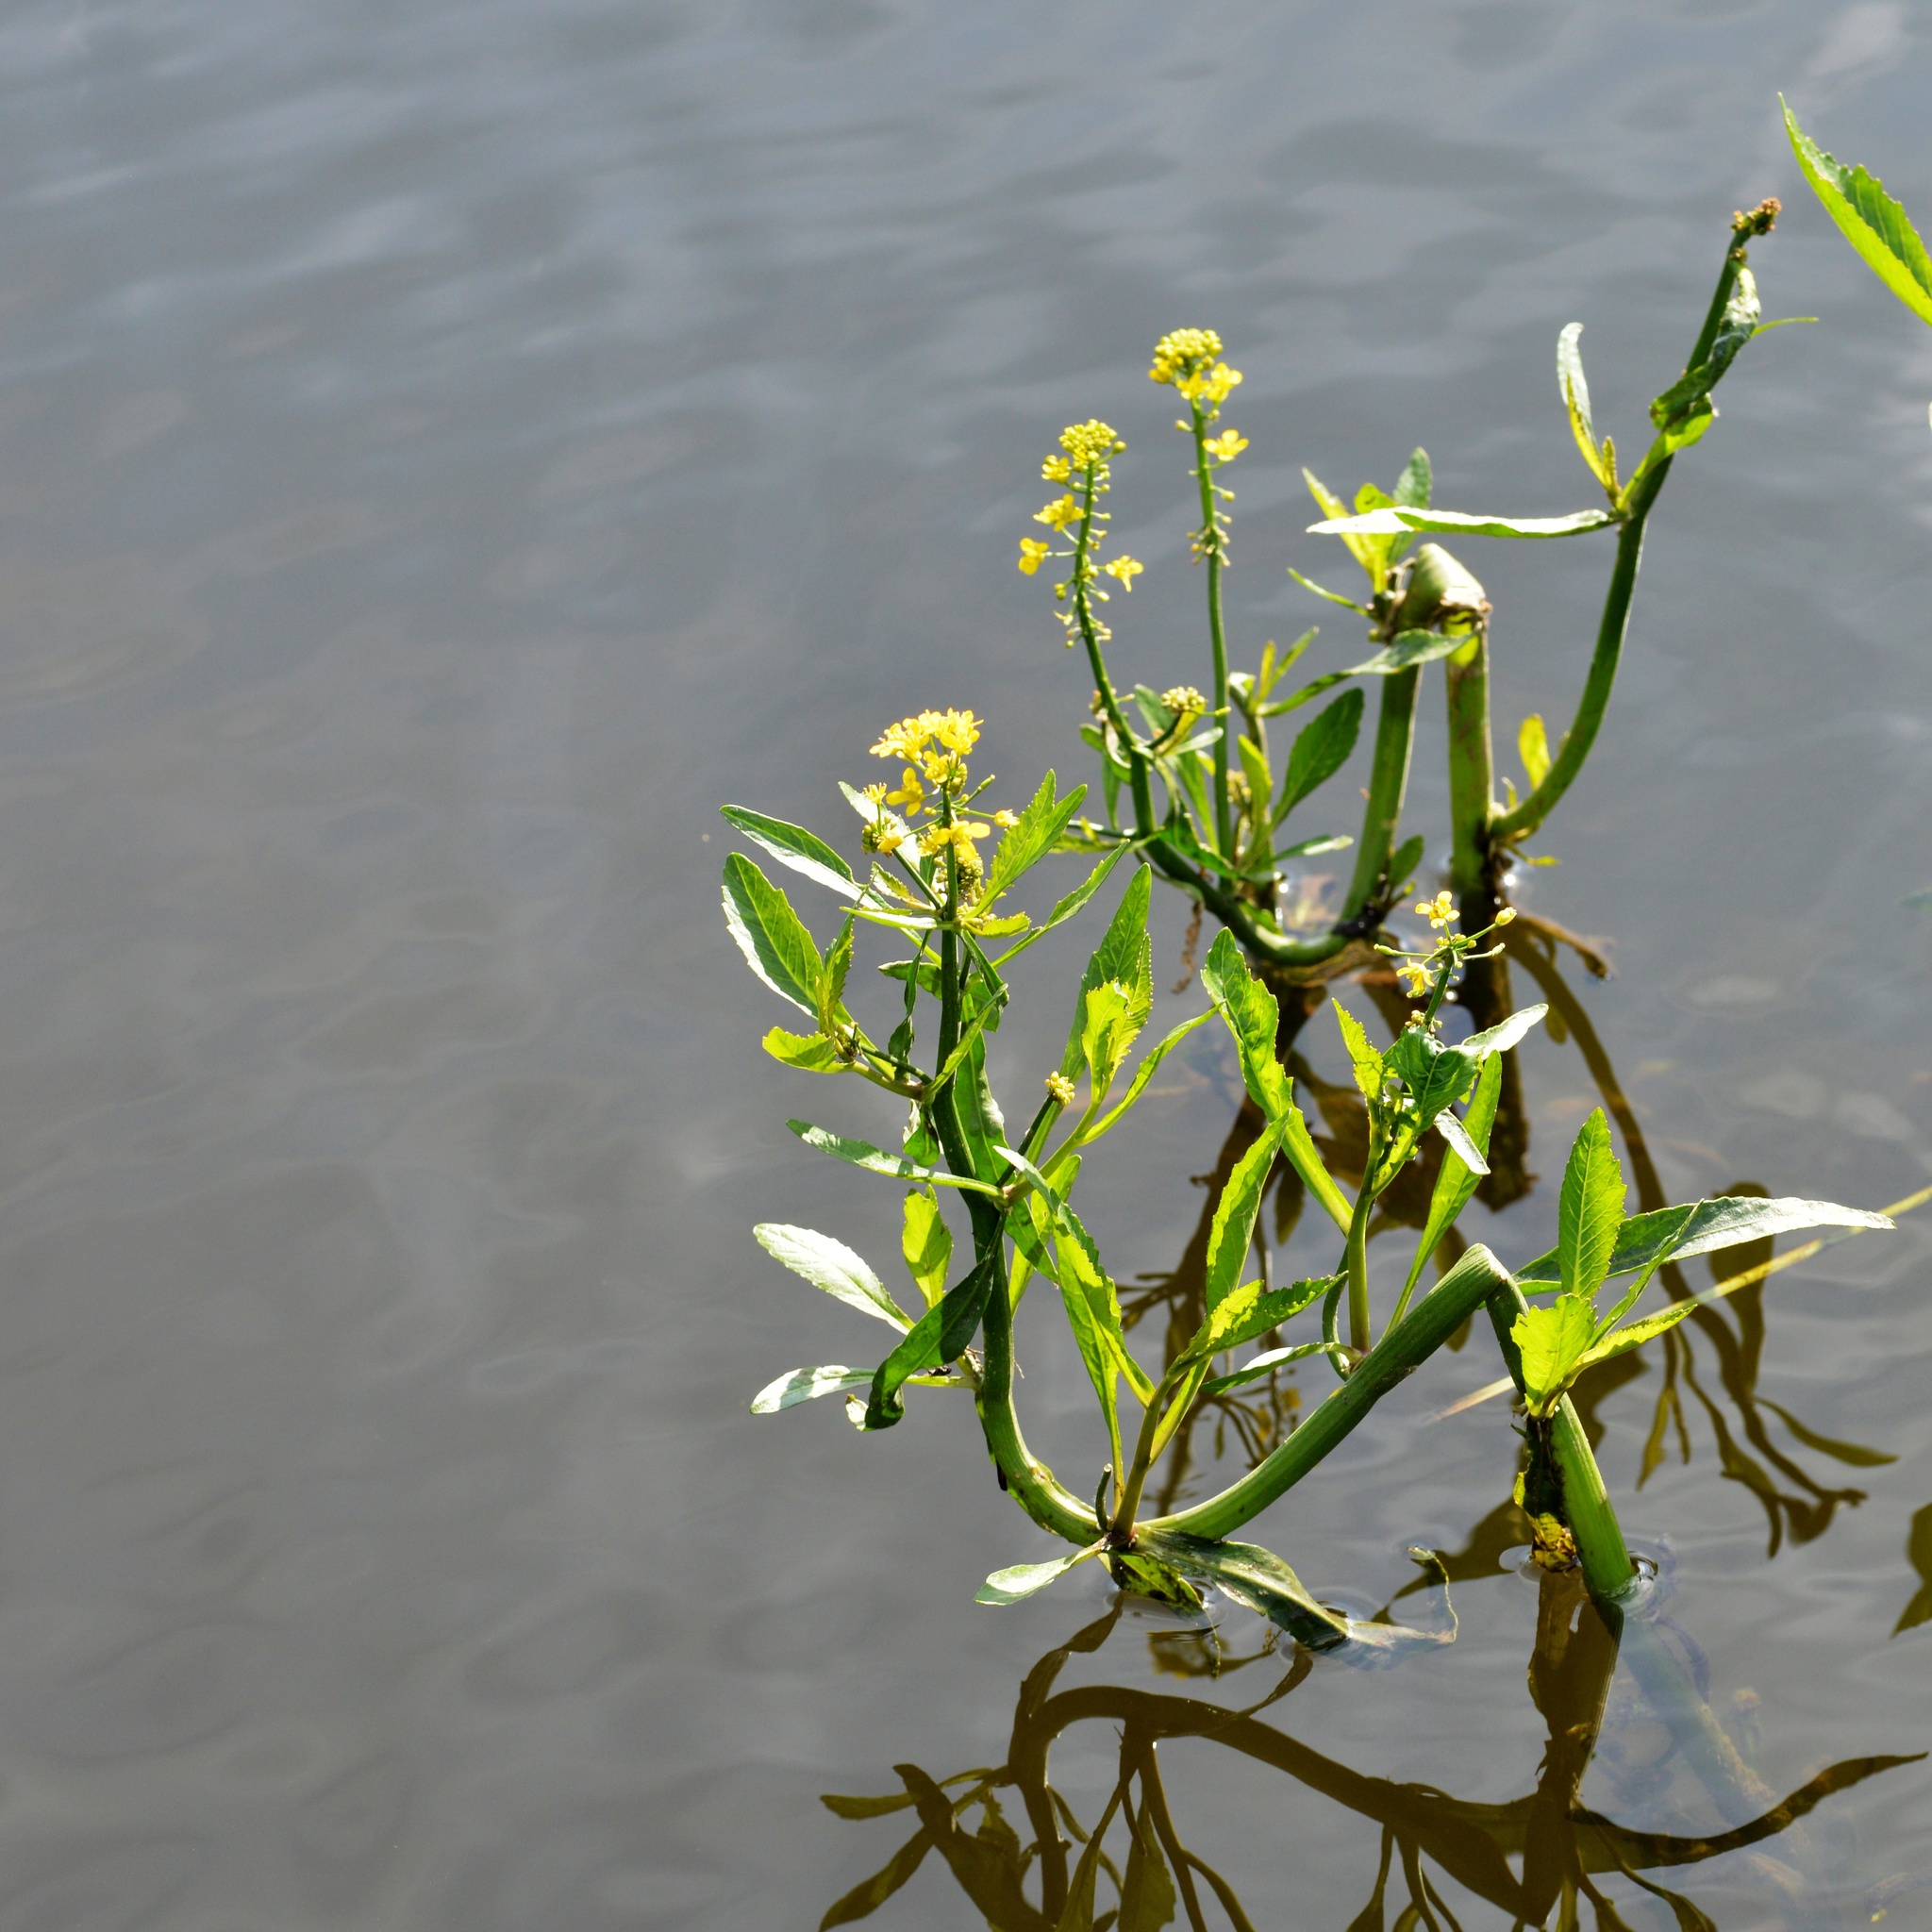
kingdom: Plantae
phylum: Tracheophyta
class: Magnoliopsida
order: Brassicales
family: Brassicaceae
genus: Rorippa
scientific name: Rorippa amphibia
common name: Great yellow-cress
